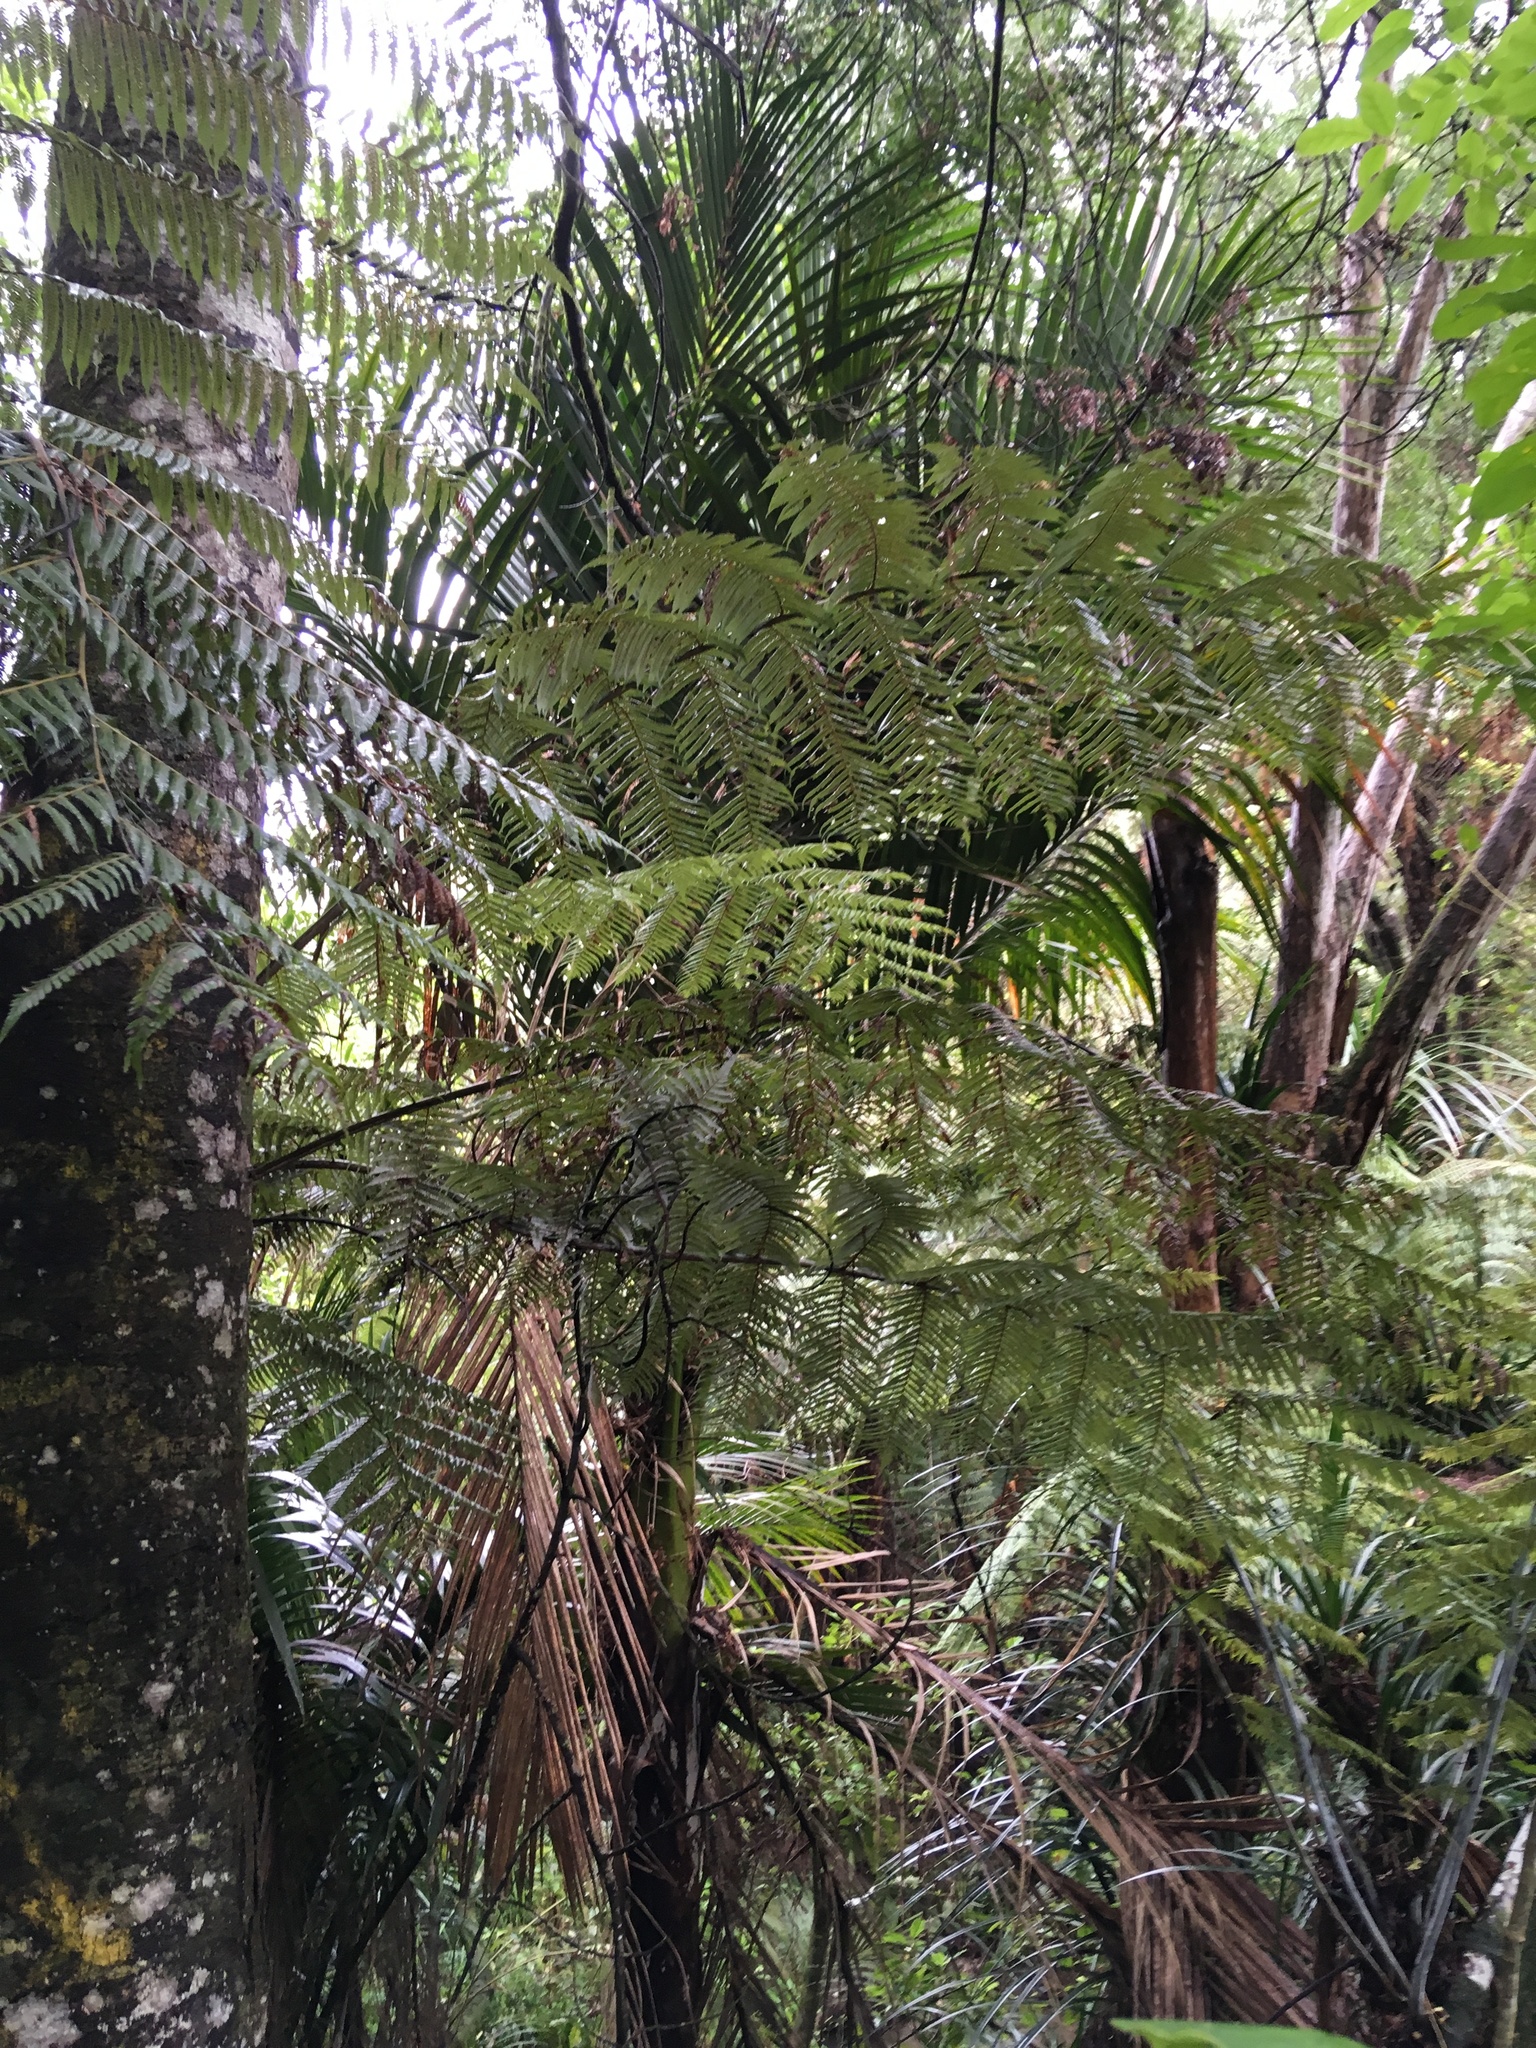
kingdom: Plantae
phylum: Tracheophyta
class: Liliopsida
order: Arecales
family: Arecaceae
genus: Rhopalostylis
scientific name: Rhopalostylis sapida
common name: Feather-duster palm
